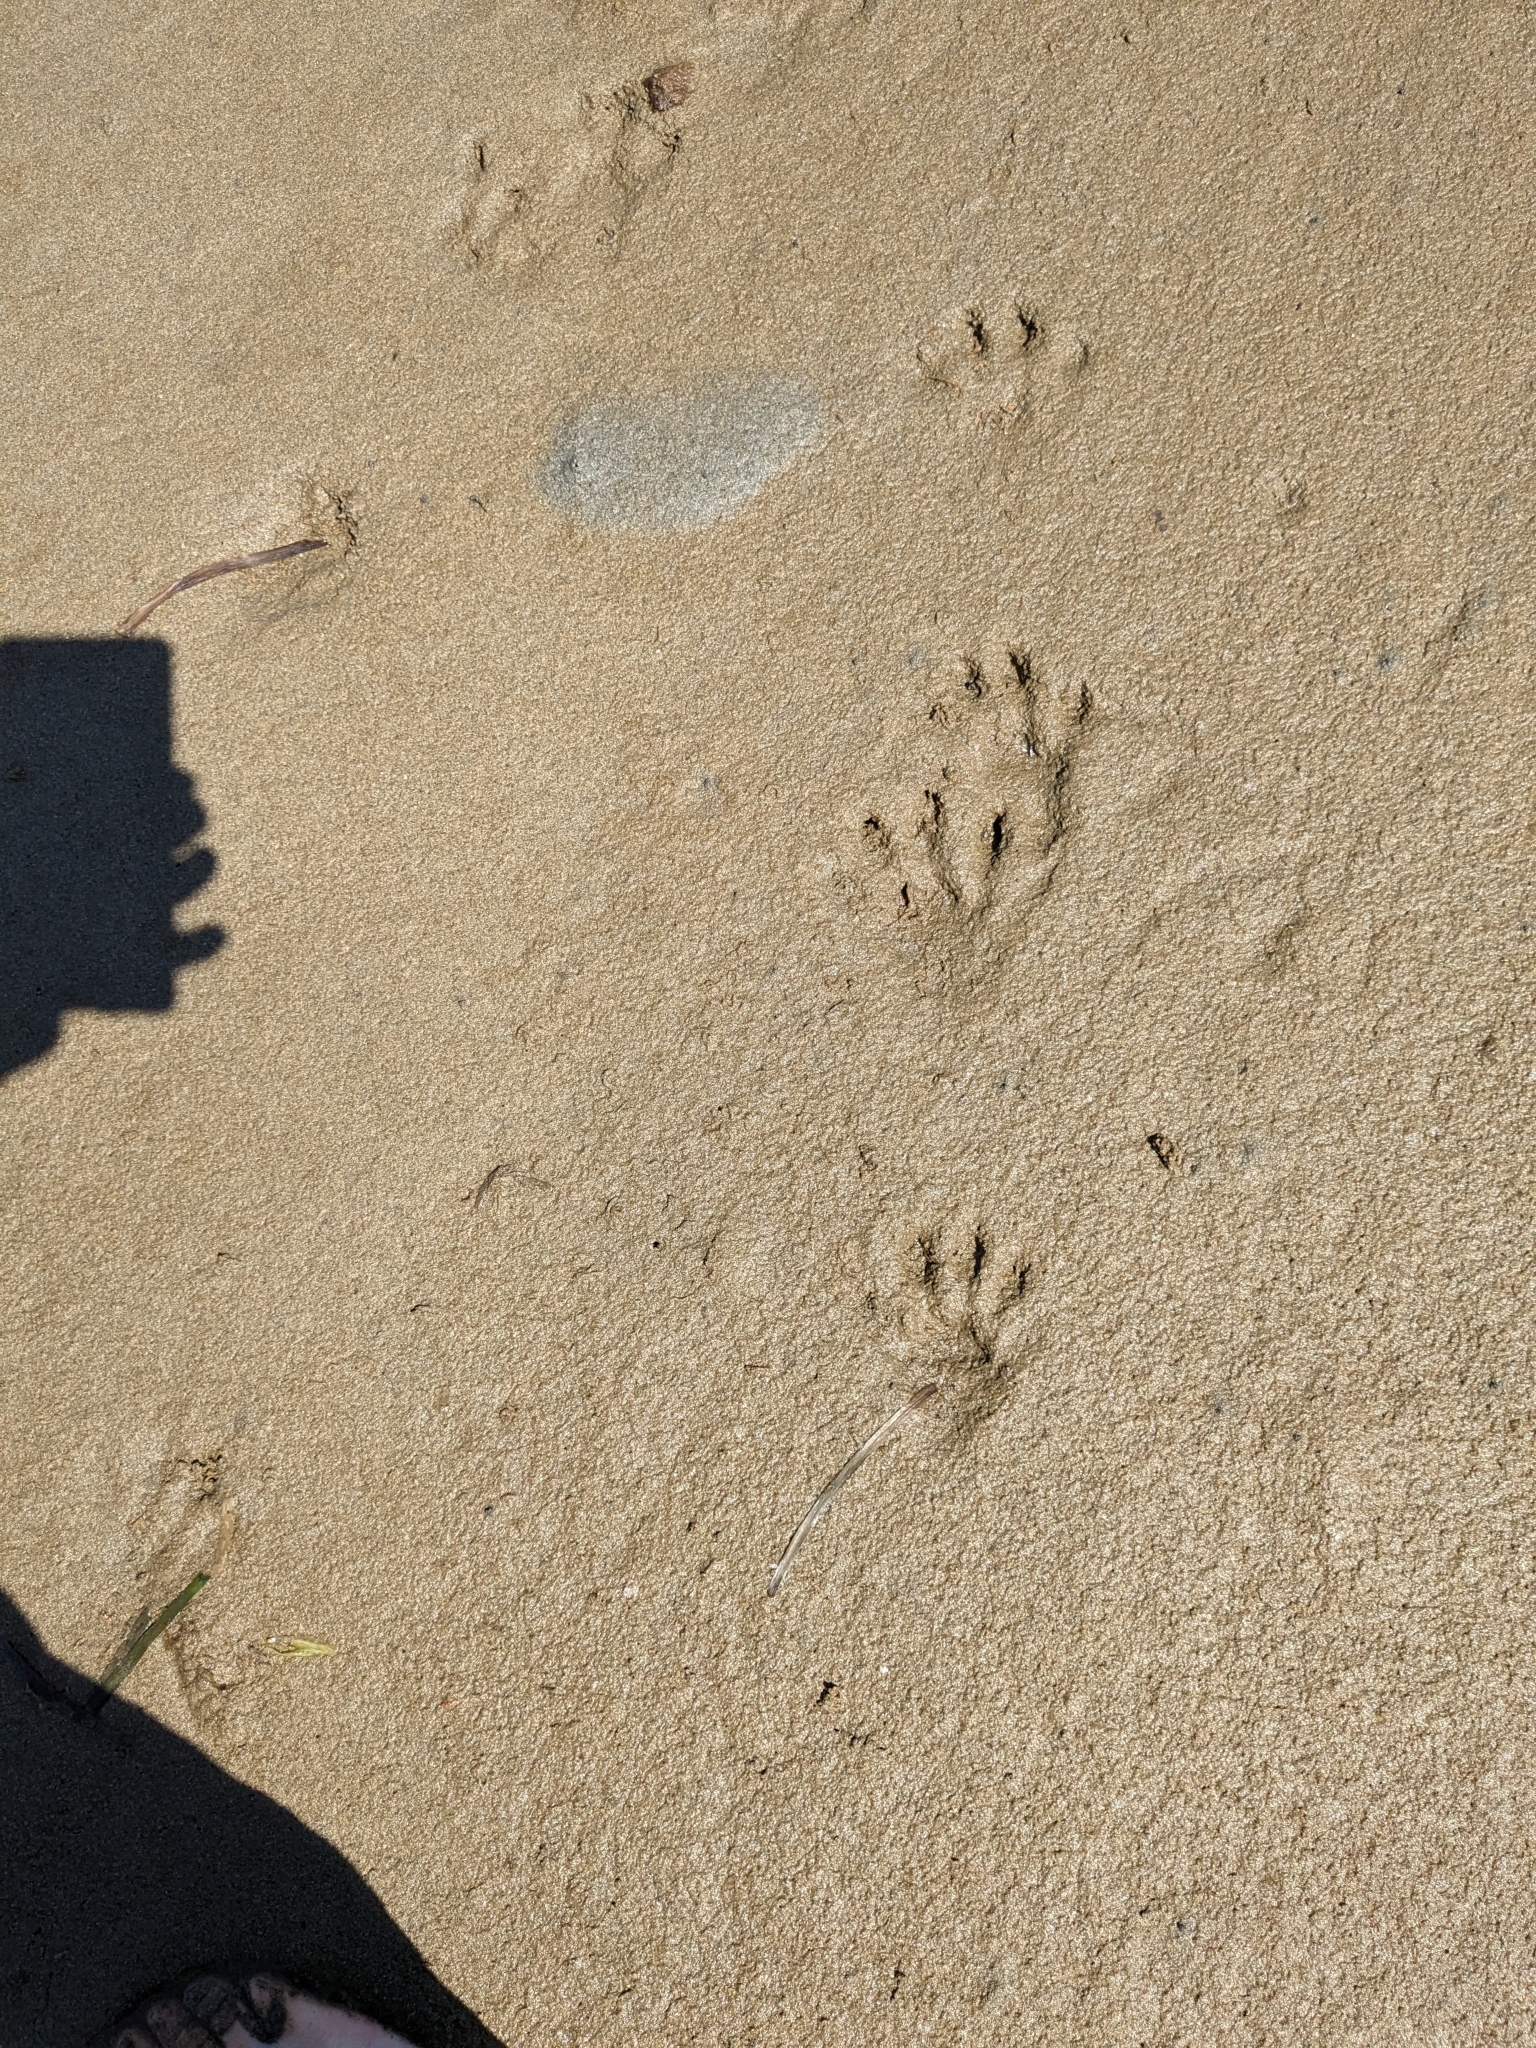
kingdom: Animalia
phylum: Chordata
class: Mammalia
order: Carnivora
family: Procyonidae
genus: Procyon
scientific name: Procyon lotor
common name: Raccoon
